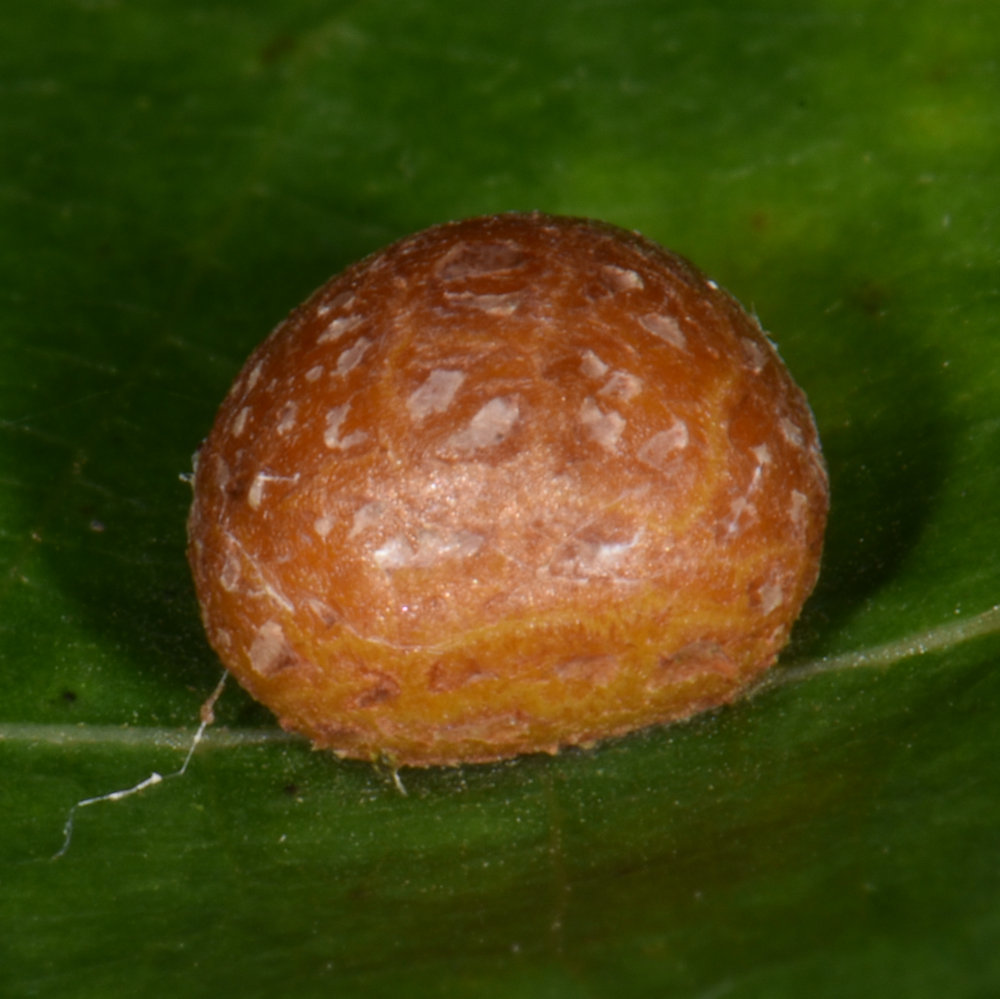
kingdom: Animalia
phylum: Arthropoda
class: Insecta
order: Diptera
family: Cecidomyiidae
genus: Polystepha
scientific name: Polystepha pilulae
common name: Oak leaf gall midge
